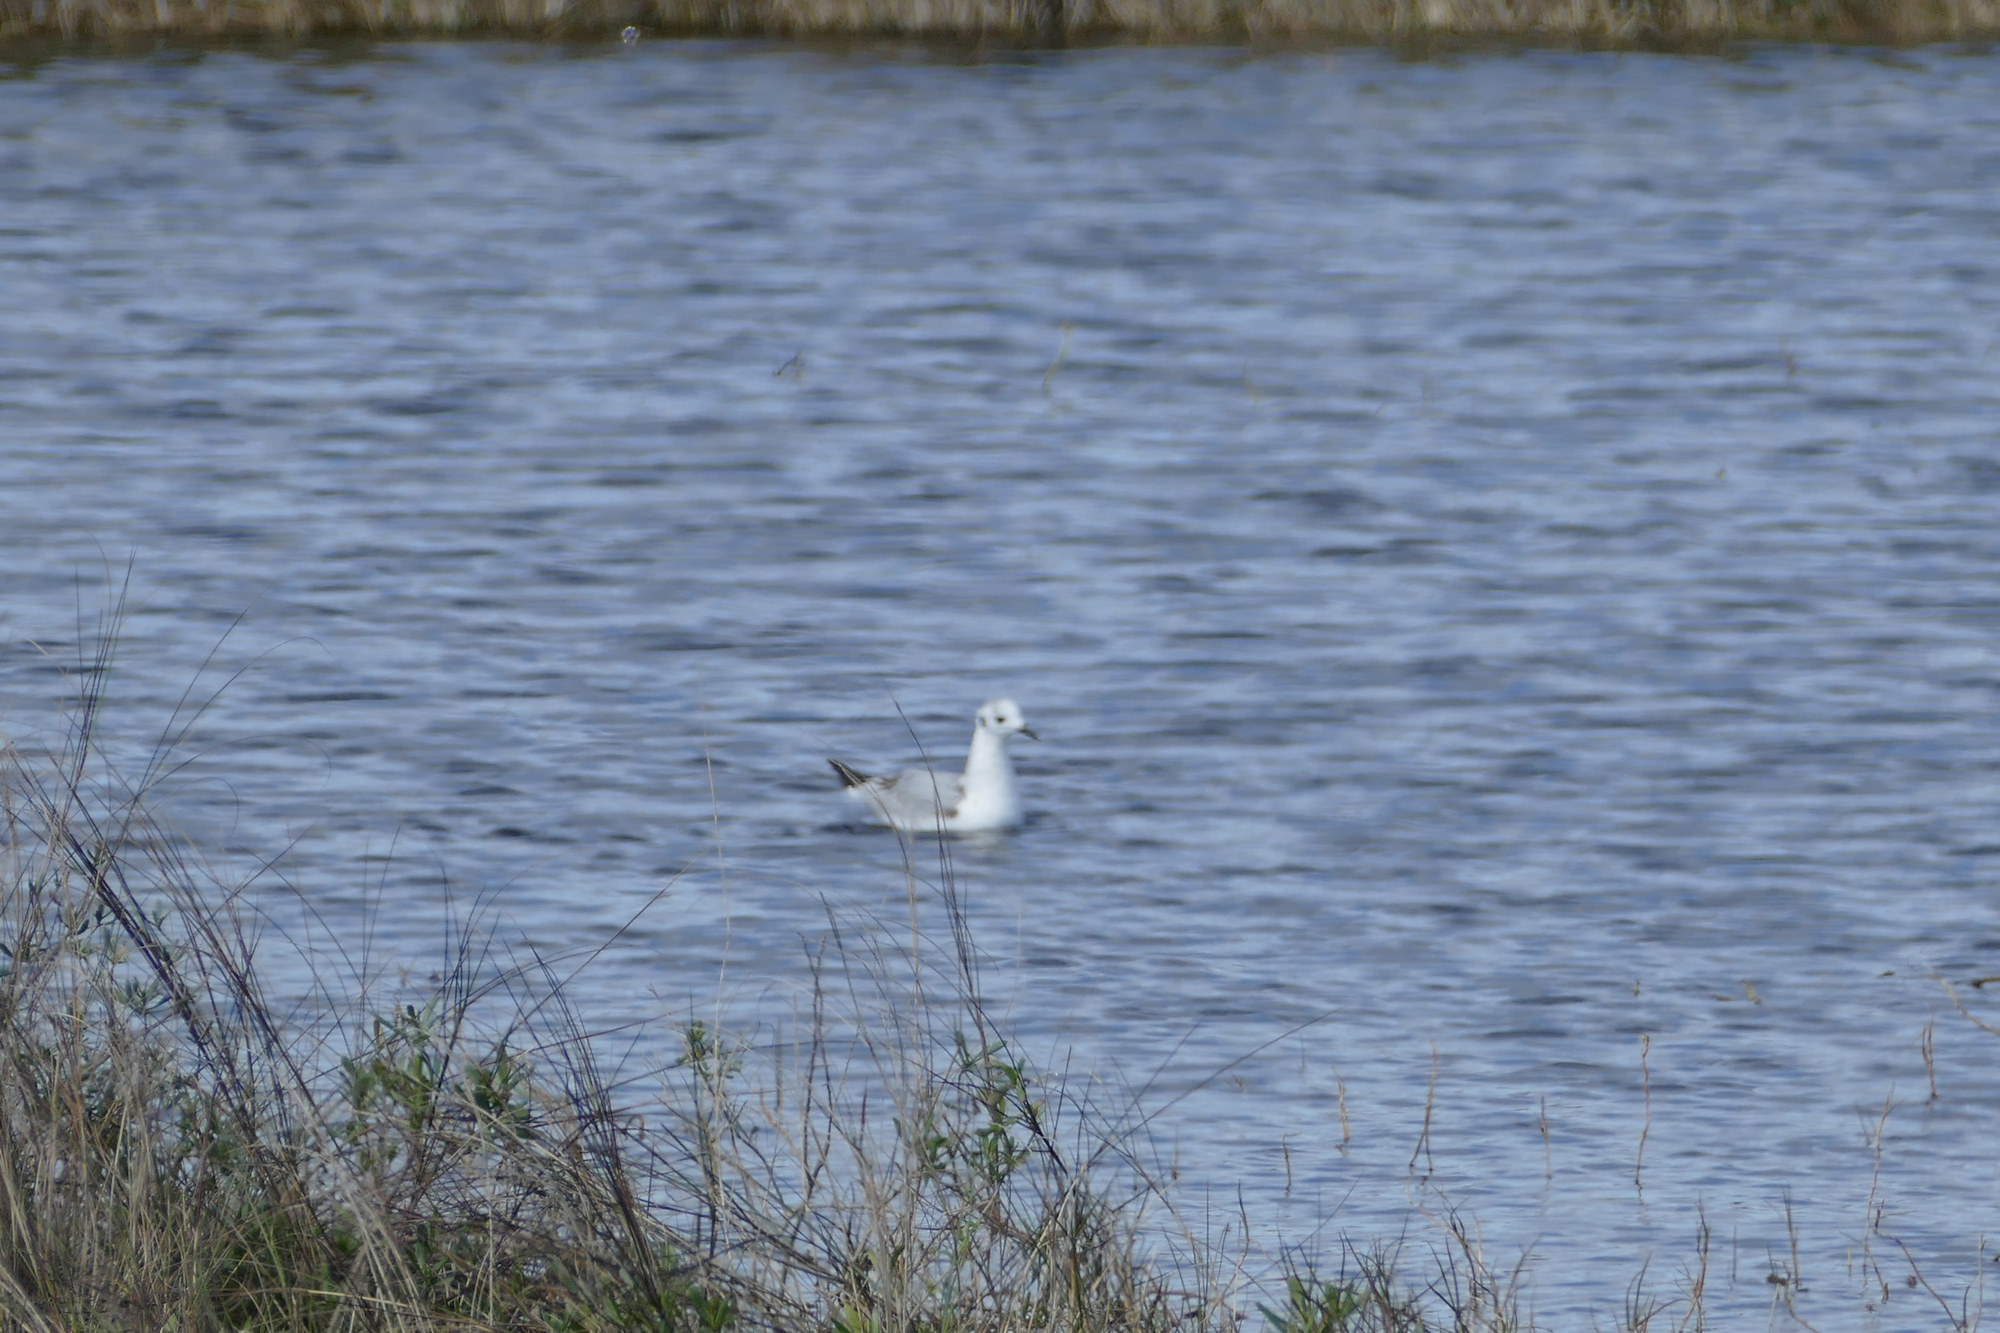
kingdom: Animalia
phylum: Chordata
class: Aves
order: Charadriiformes
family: Laridae
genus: Chroicocephalus
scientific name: Chroicocephalus philadelphia
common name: Bonaparte's gull
